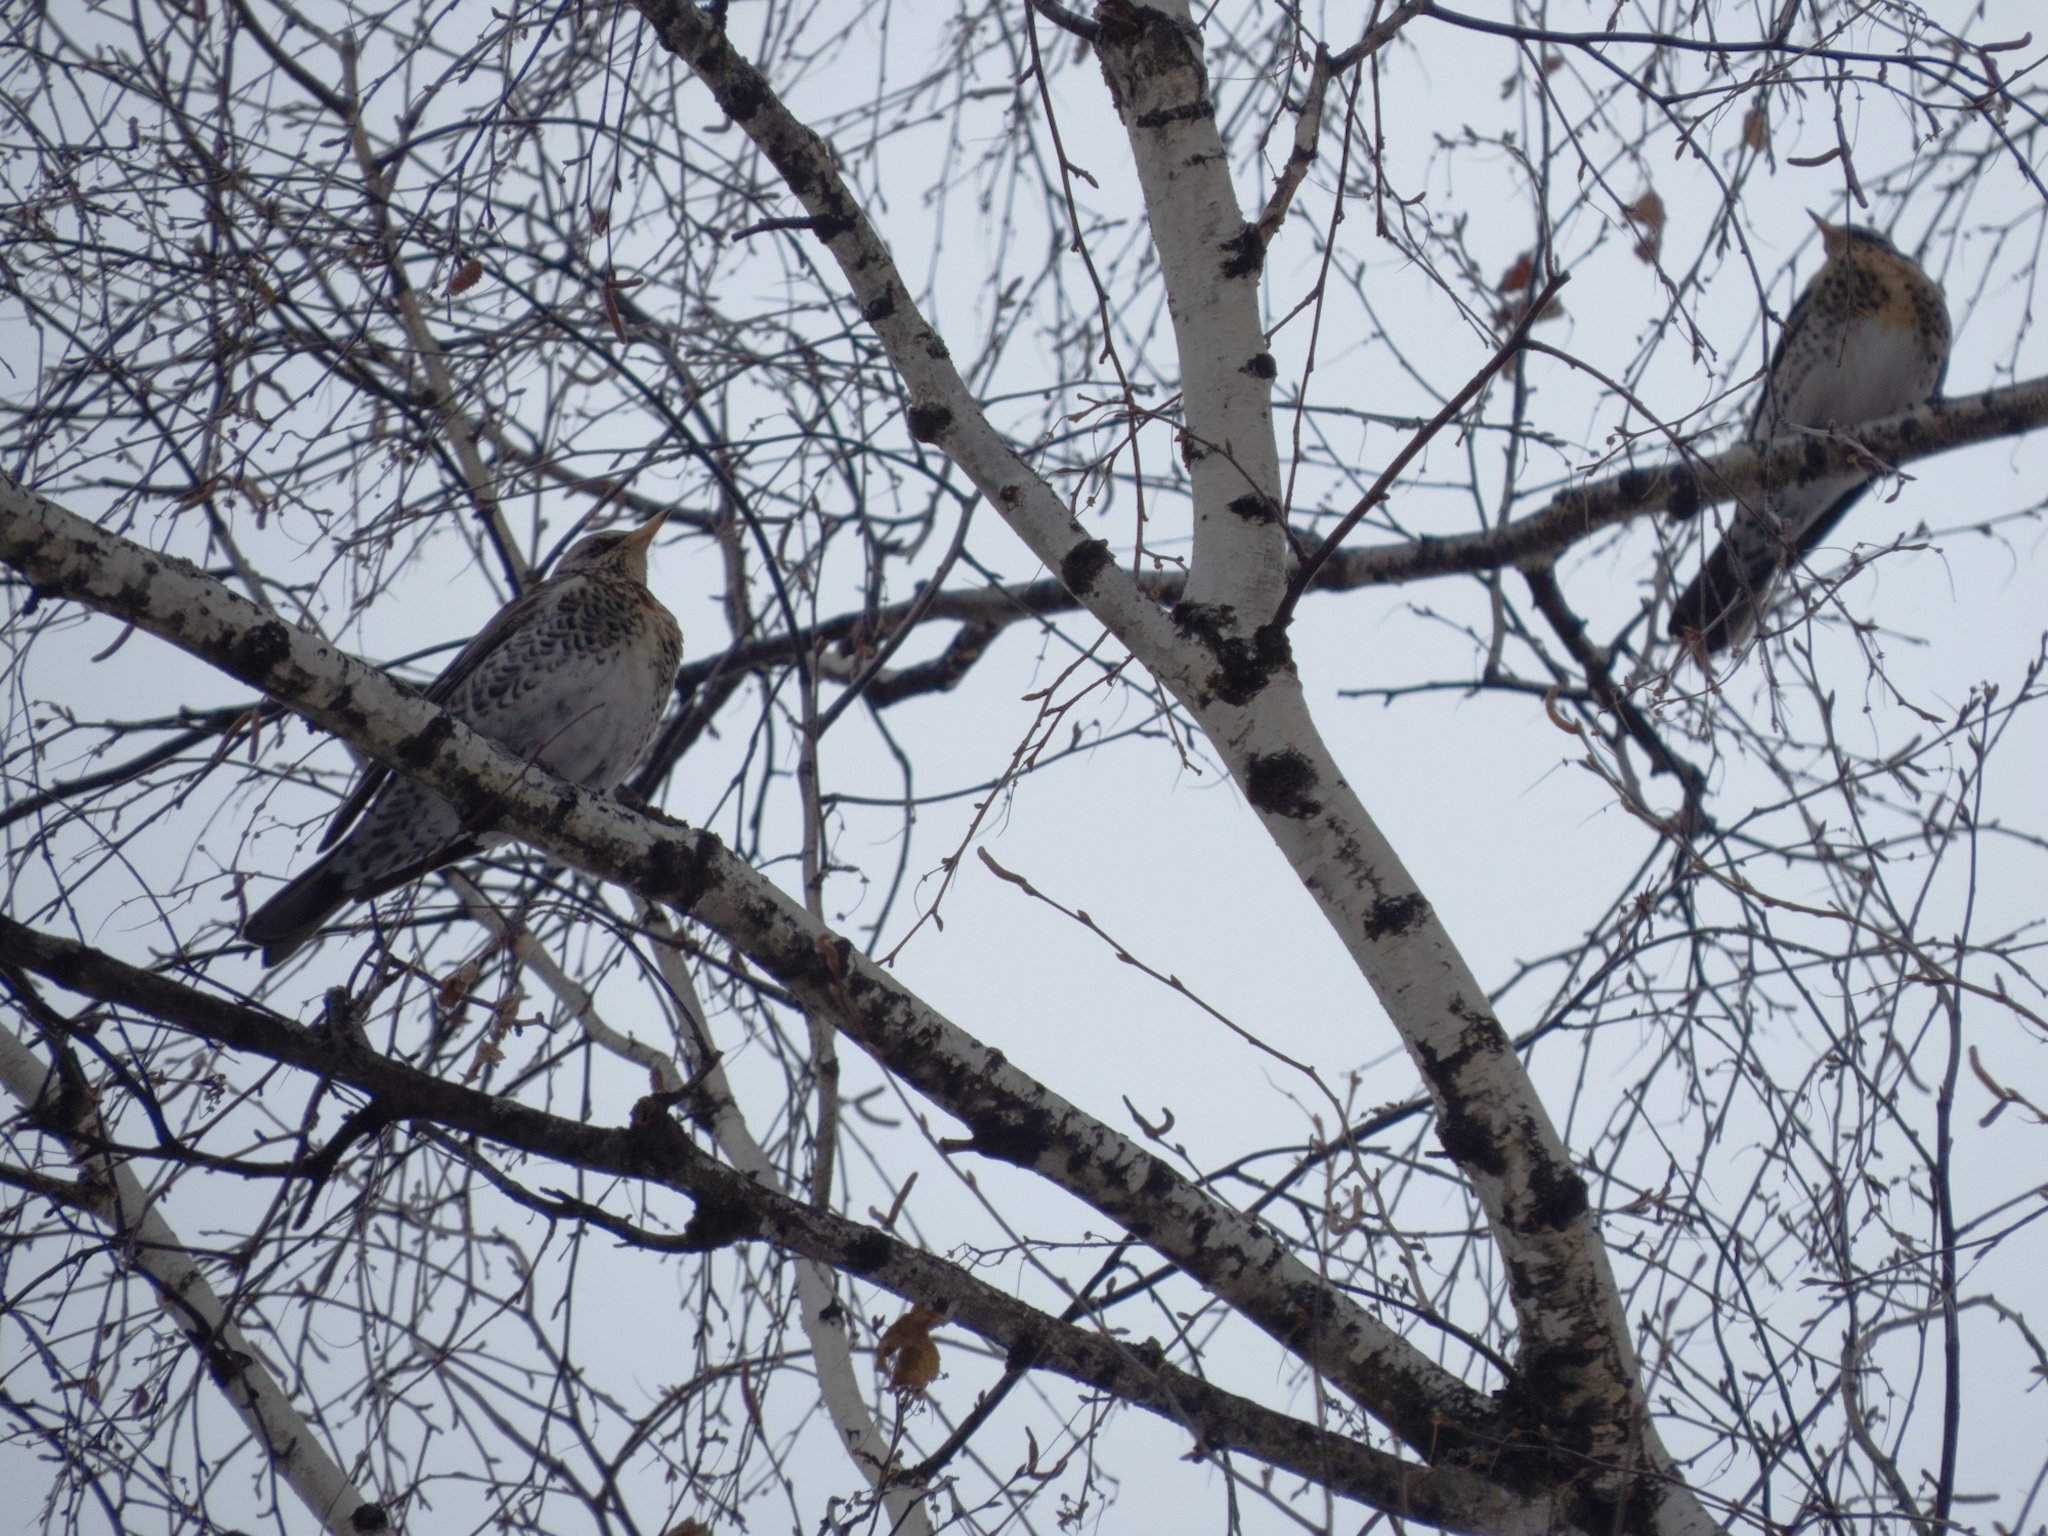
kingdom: Animalia
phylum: Chordata
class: Aves
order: Passeriformes
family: Turdidae
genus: Turdus
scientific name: Turdus pilaris
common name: Fieldfare
